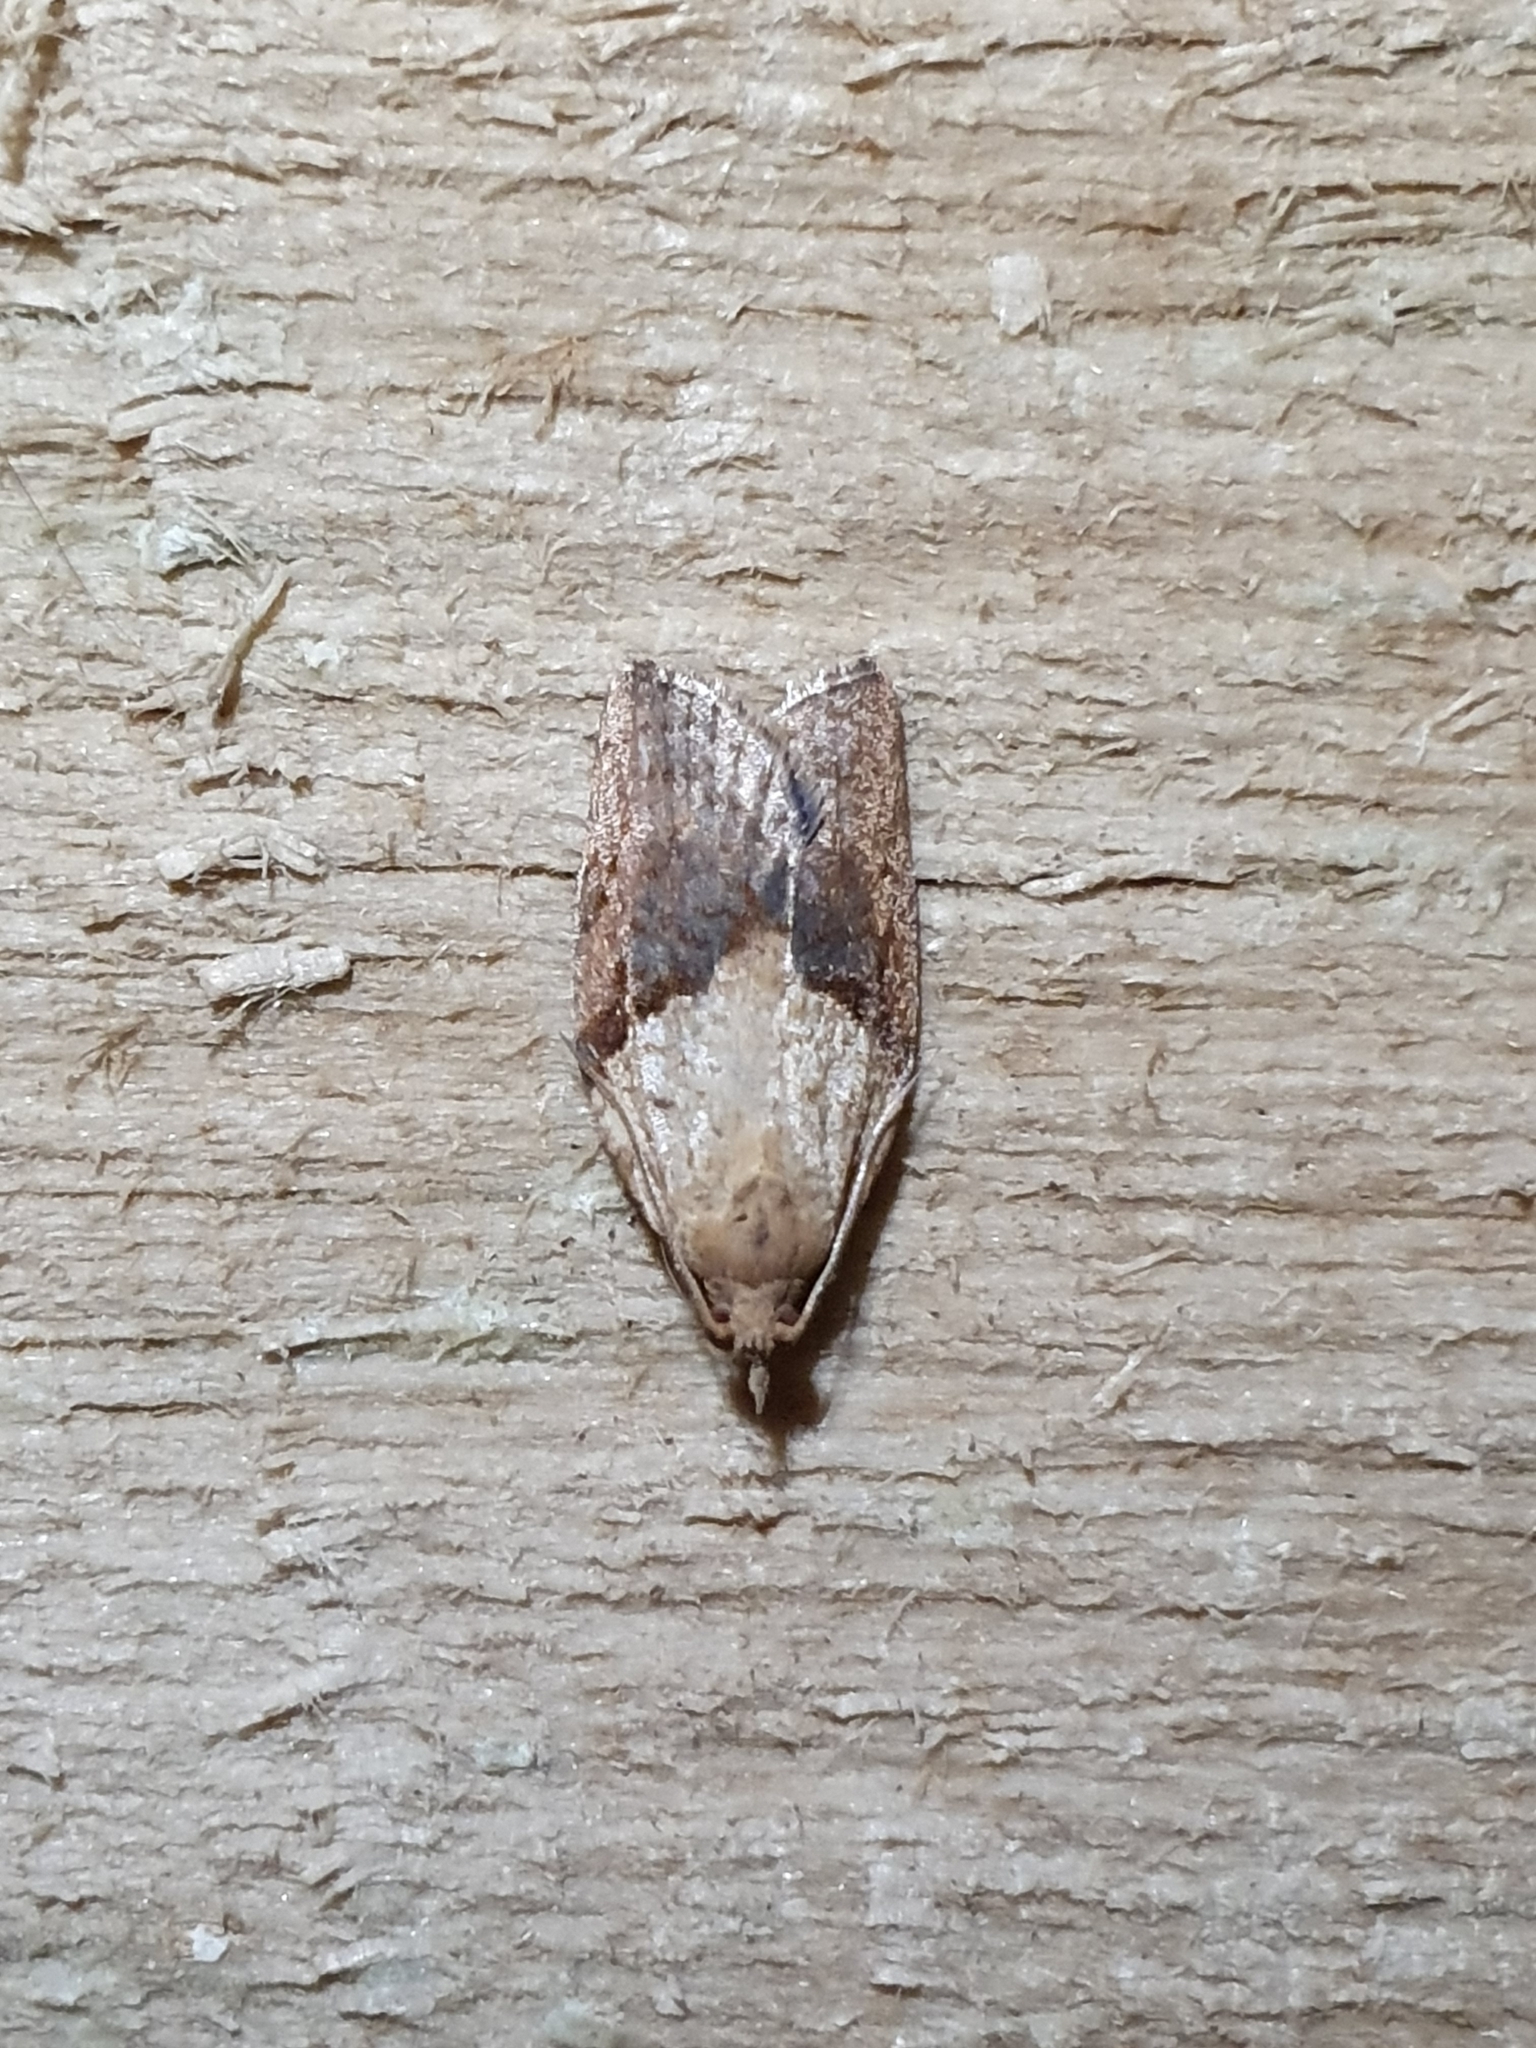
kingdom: Animalia
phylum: Arthropoda
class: Insecta
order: Lepidoptera
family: Tortricidae
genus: Epiphyas
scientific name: Epiphyas postvittana
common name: Light brown apple moth
